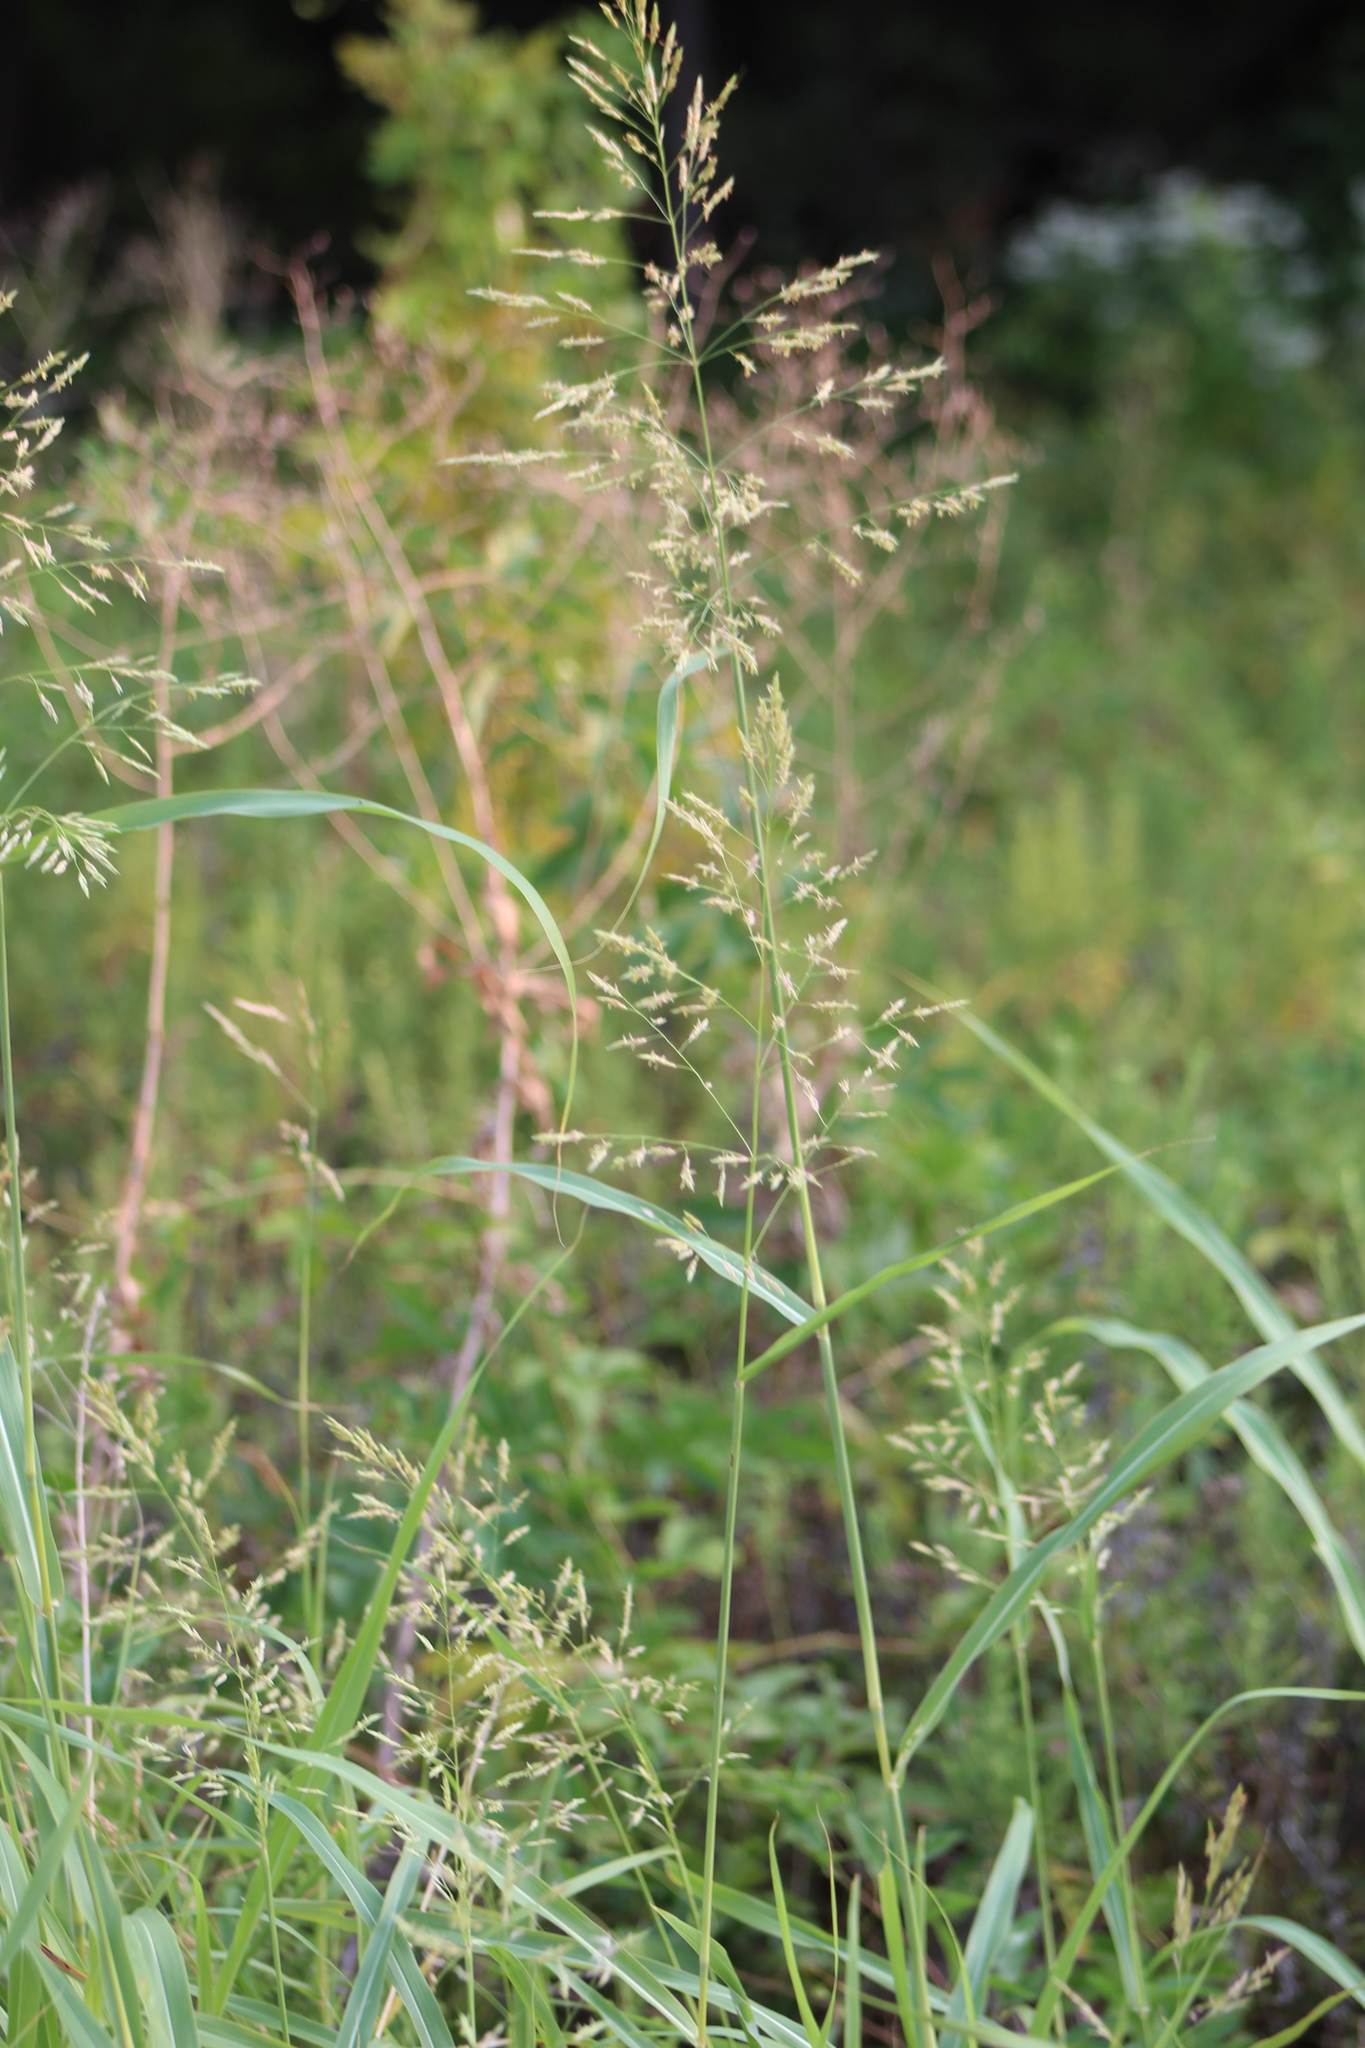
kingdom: Plantae
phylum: Tracheophyta
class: Liliopsida
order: Poales
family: Poaceae
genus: Sorghum
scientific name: Sorghum halepense
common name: Johnson-grass
